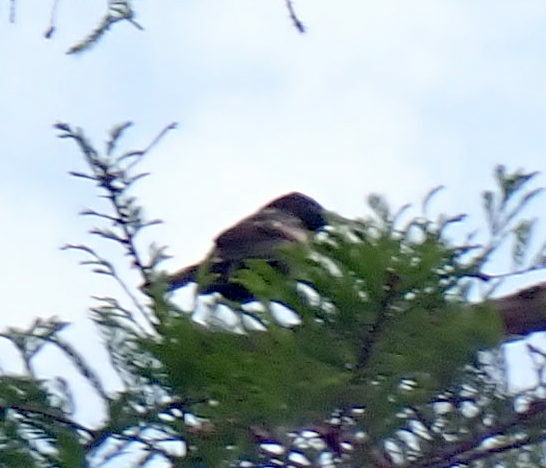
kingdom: Animalia
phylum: Chordata
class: Aves
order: Passeriformes
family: Icteridae
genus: Quiscalus
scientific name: Quiscalus quiscula
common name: Common grackle
